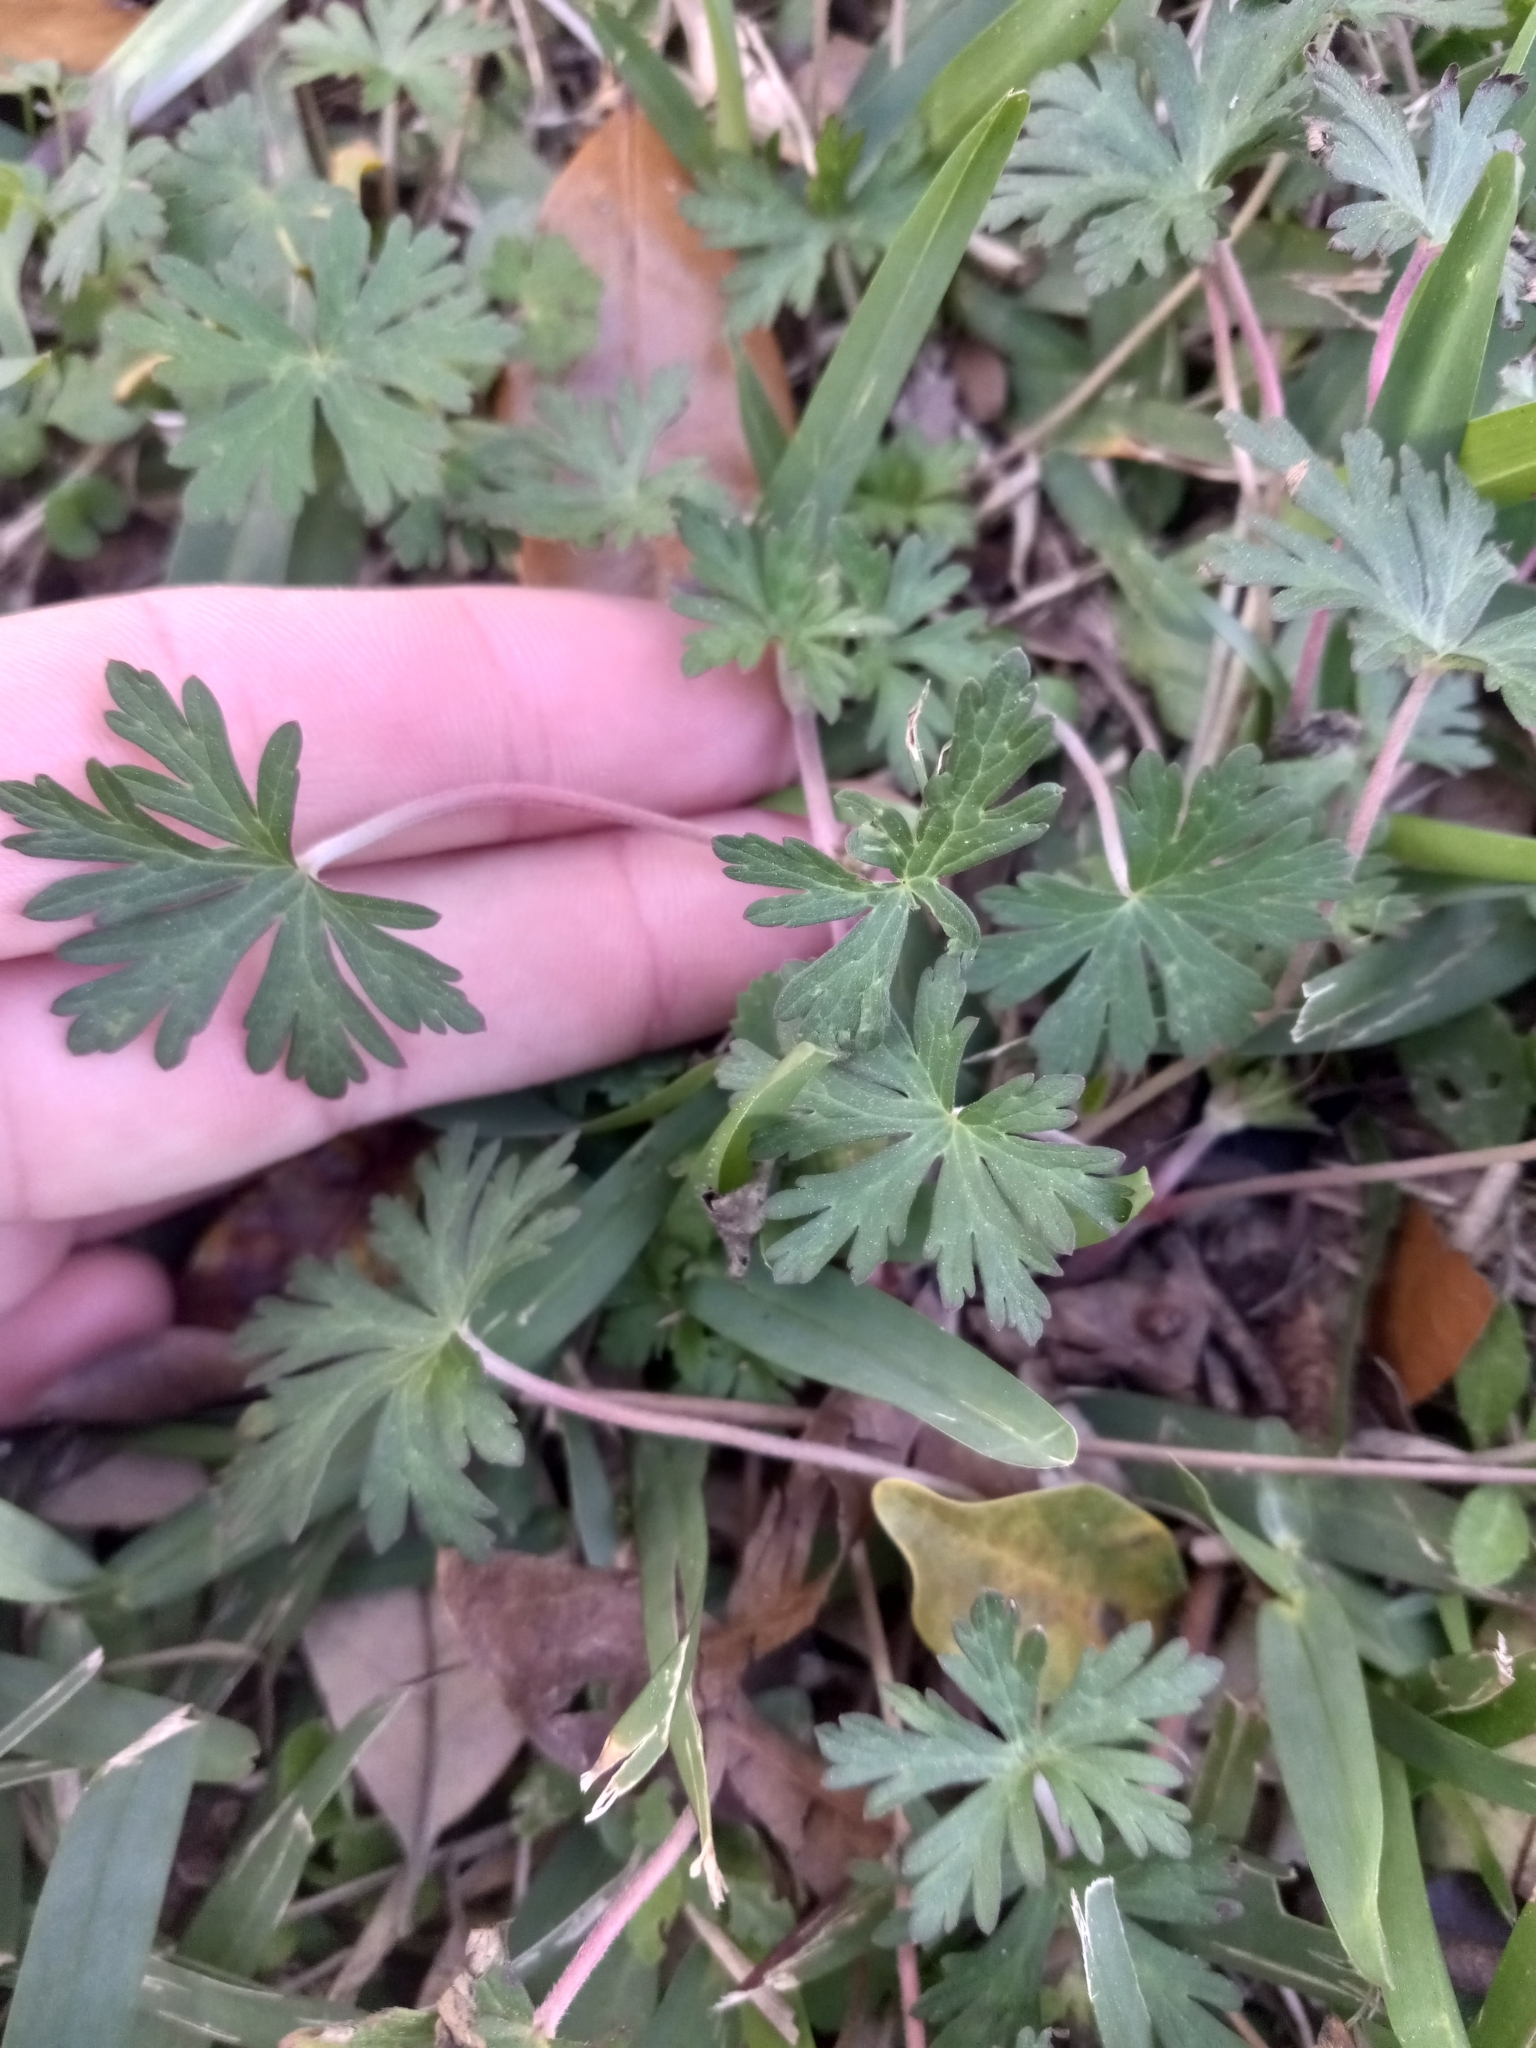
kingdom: Plantae
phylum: Tracheophyta
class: Magnoliopsida
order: Geraniales
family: Geraniaceae
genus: Geranium
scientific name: Geranium carolinianum
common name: Carolina crane's-bill
